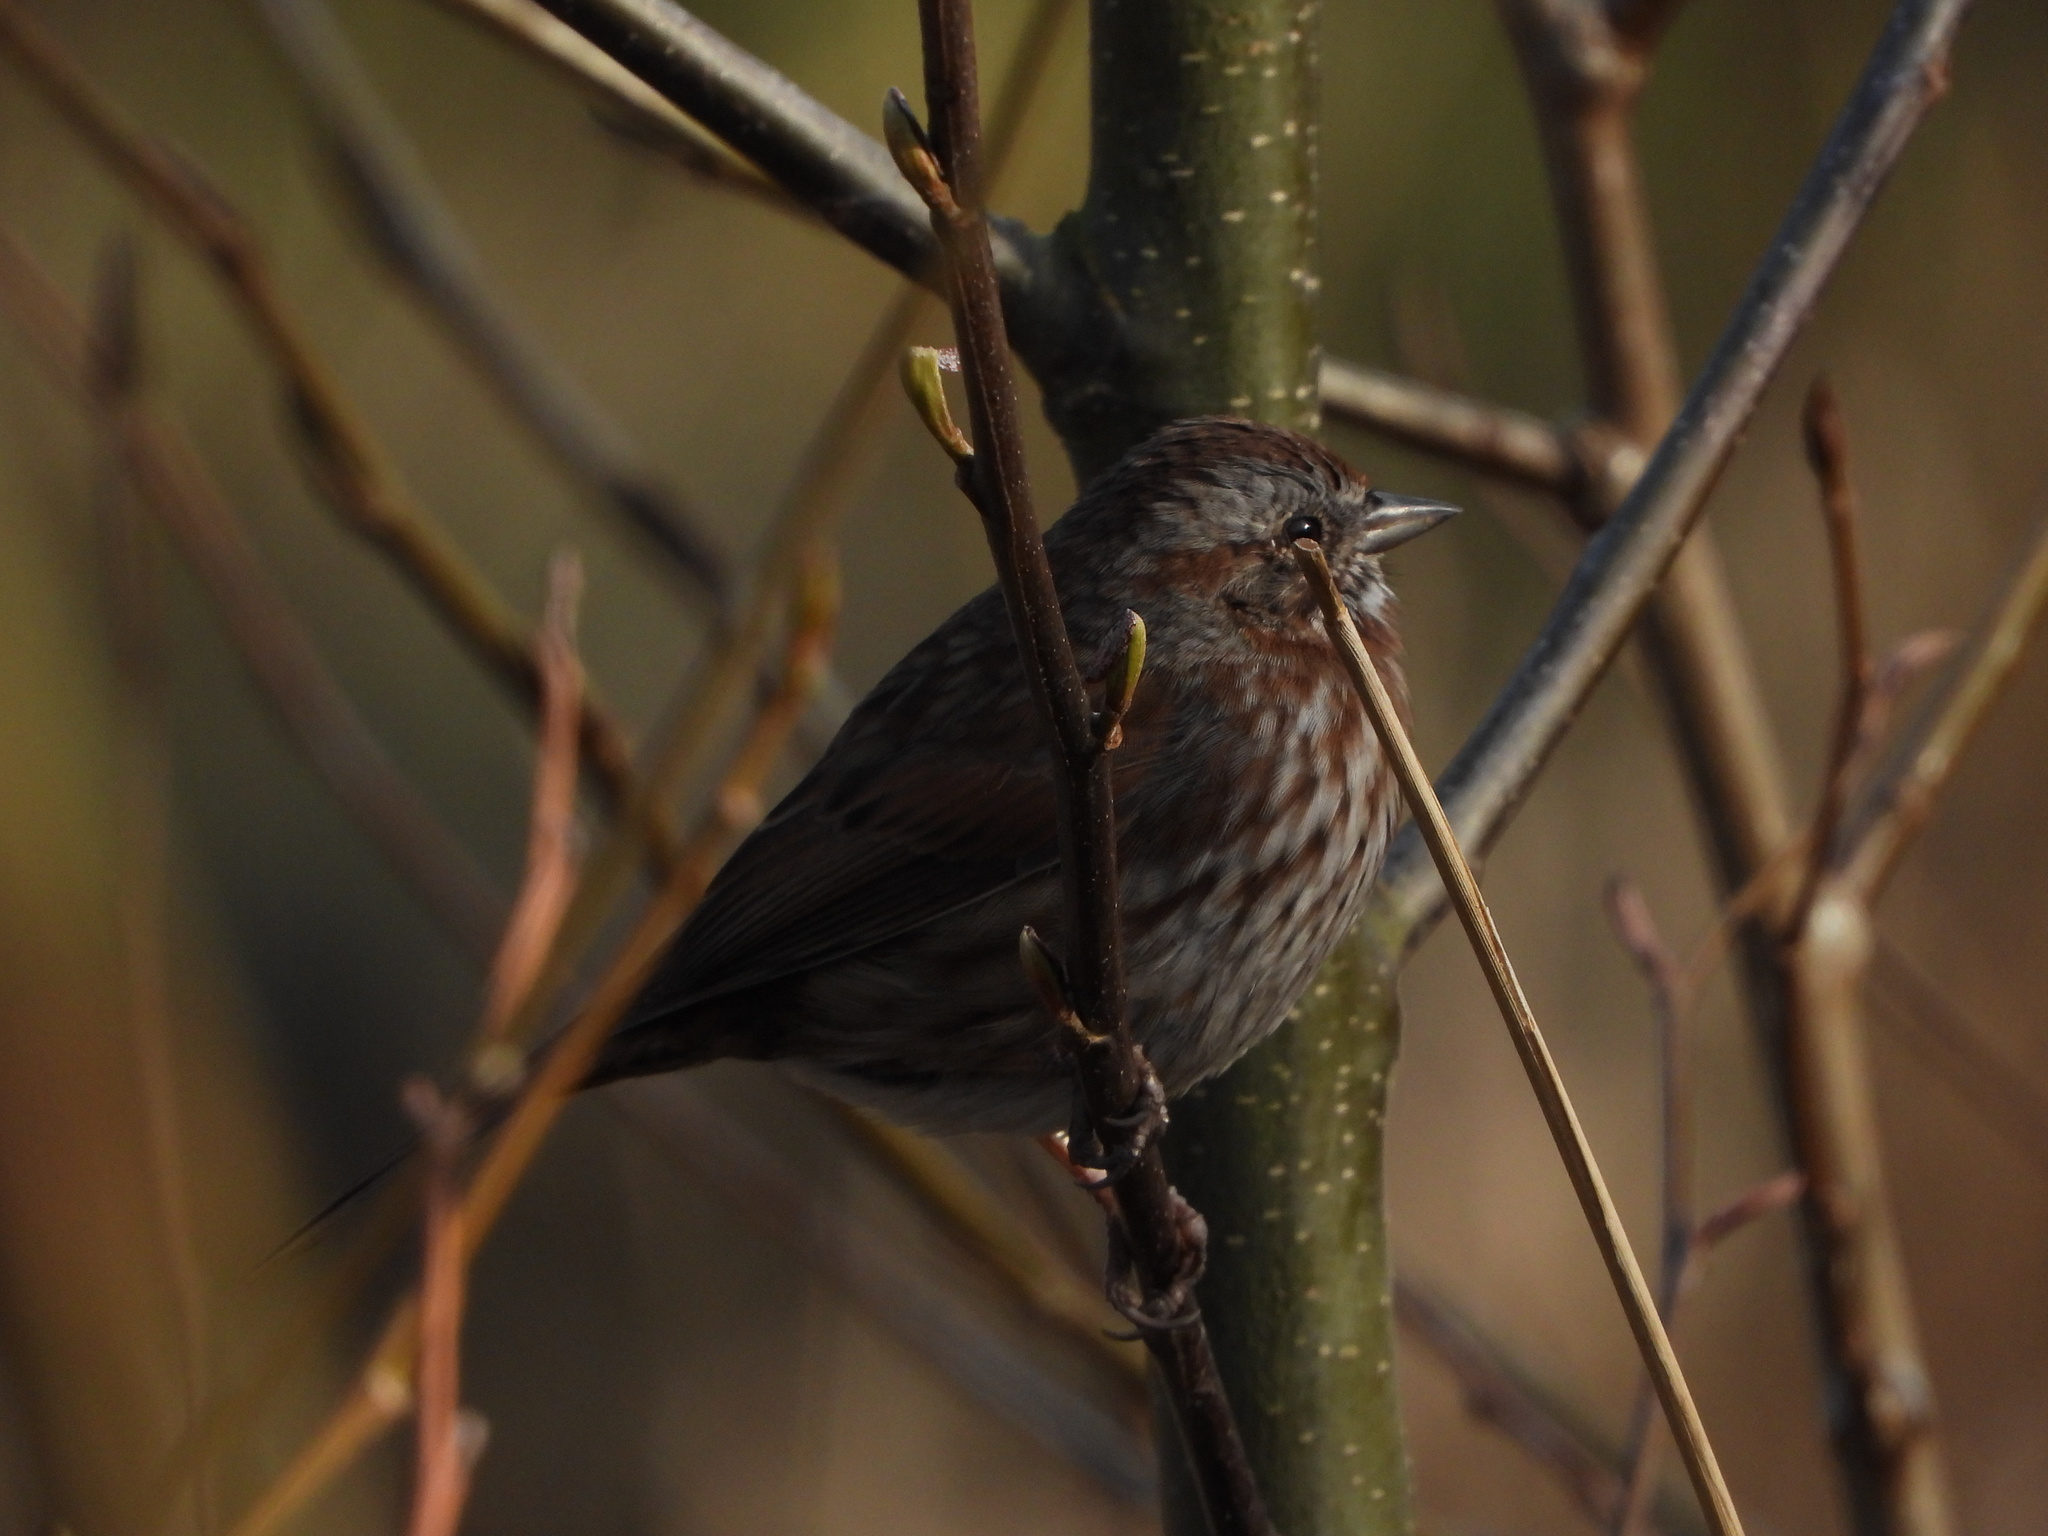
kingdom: Animalia
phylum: Chordata
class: Aves
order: Passeriformes
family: Passerellidae
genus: Melospiza
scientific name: Melospiza melodia
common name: Song sparrow
